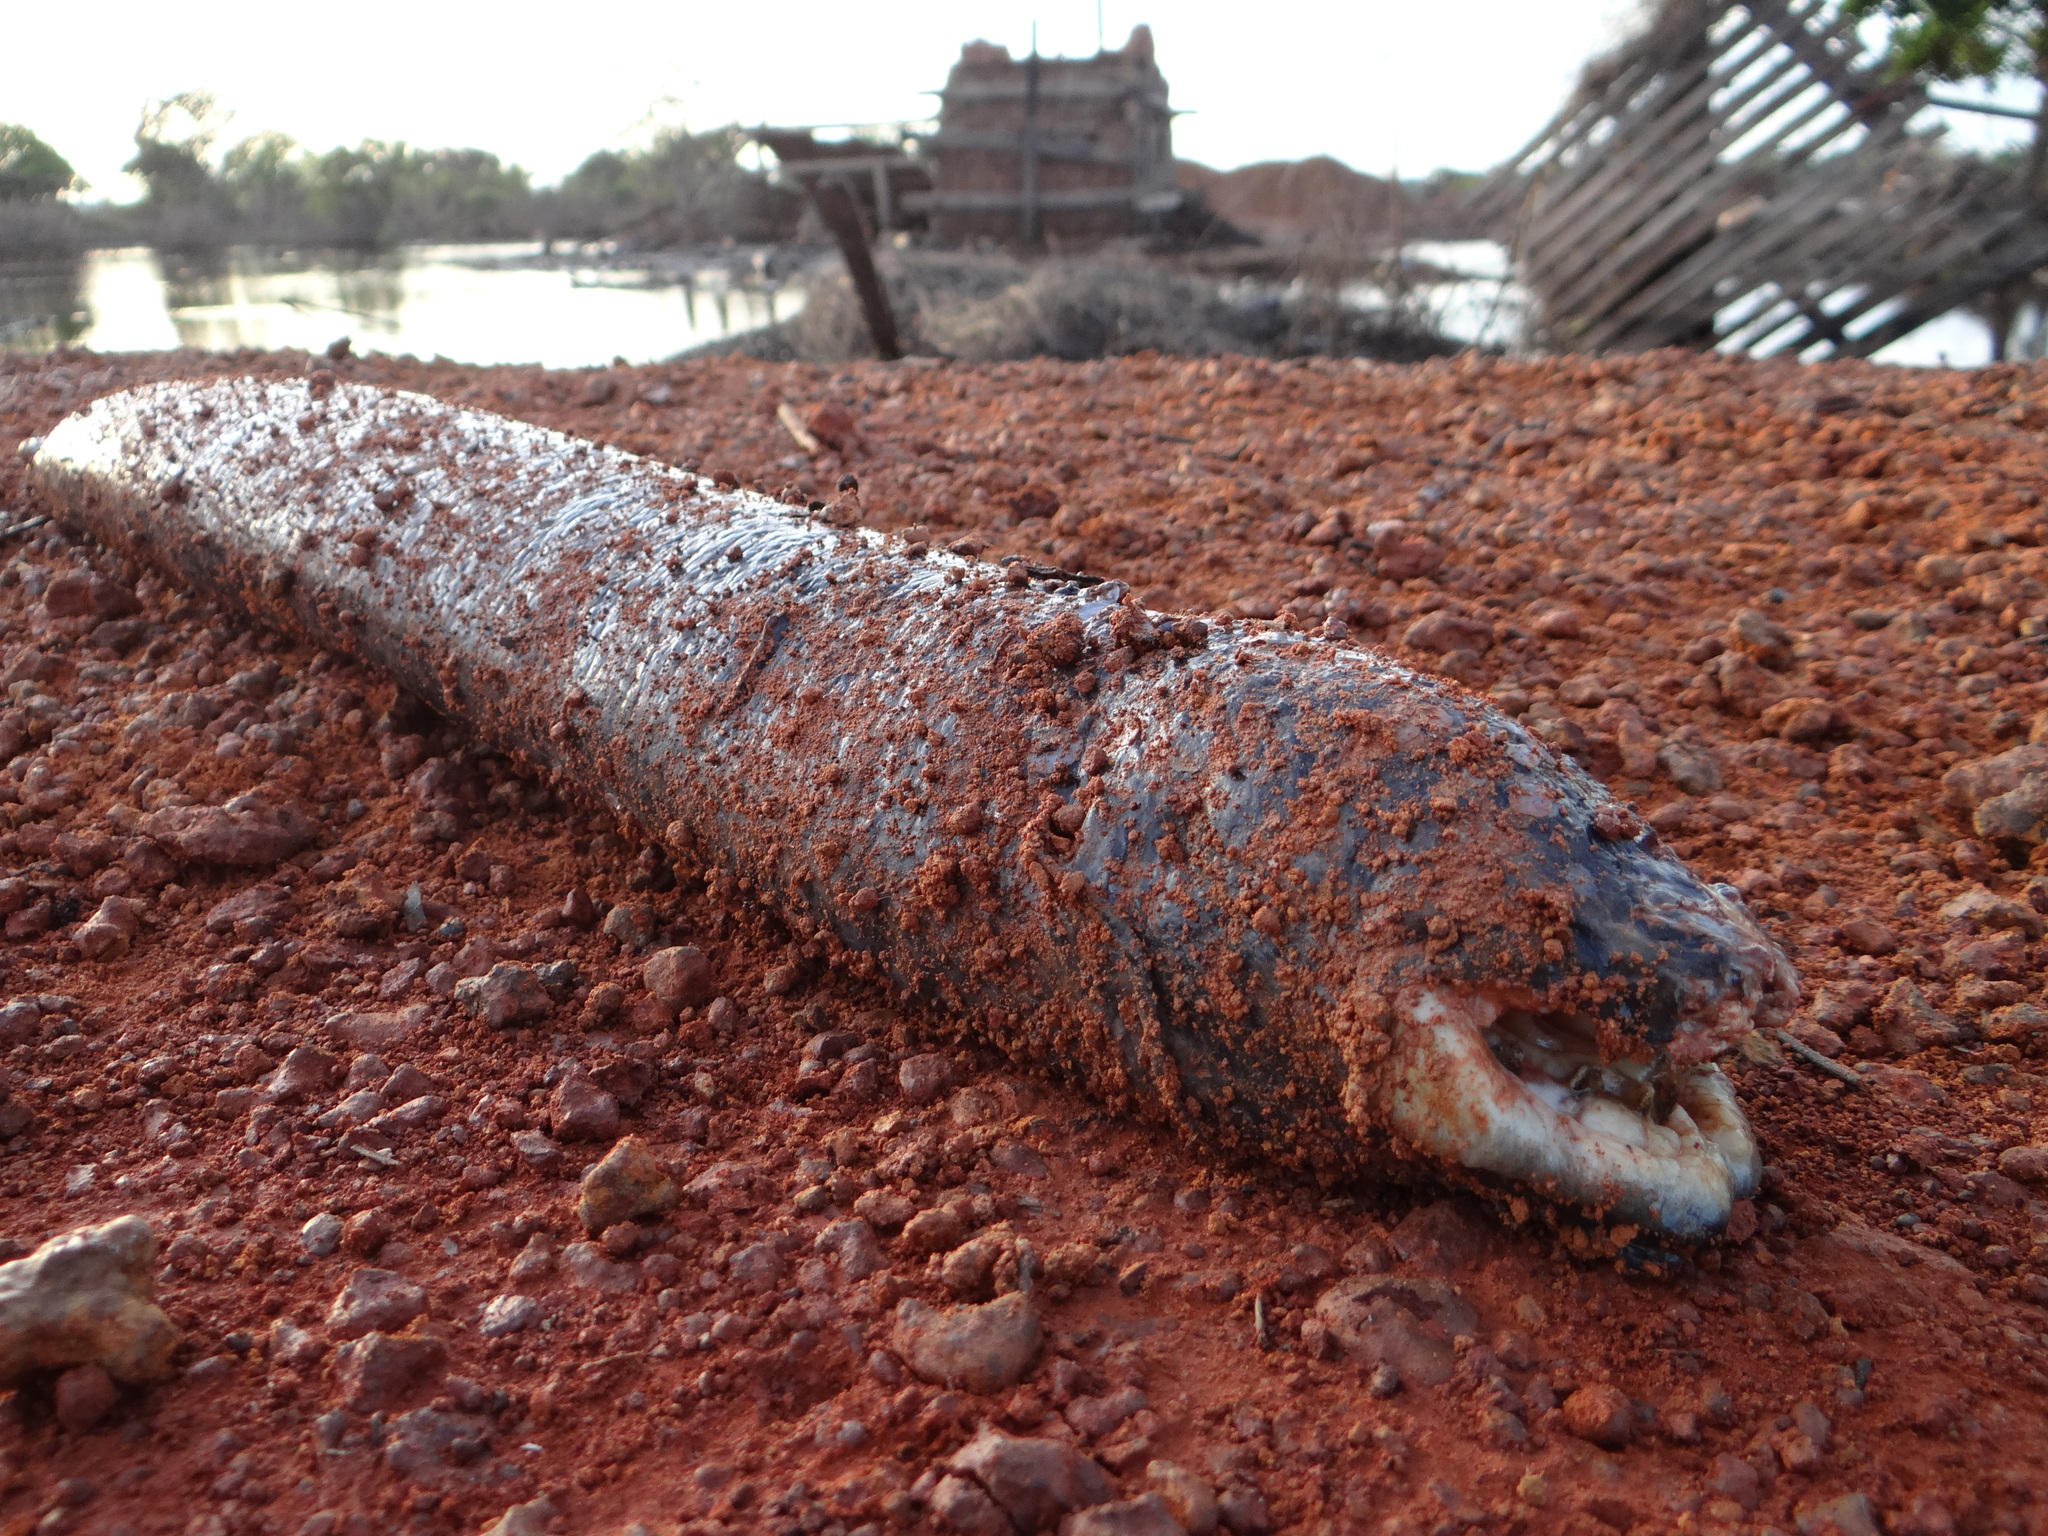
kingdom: Animalia
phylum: Chordata
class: Dipneusti
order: Ceratodontiformes
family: Lepidosirenidae
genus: Lepidosiren
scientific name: Lepidosiren paradoxa
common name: South american lungfish
